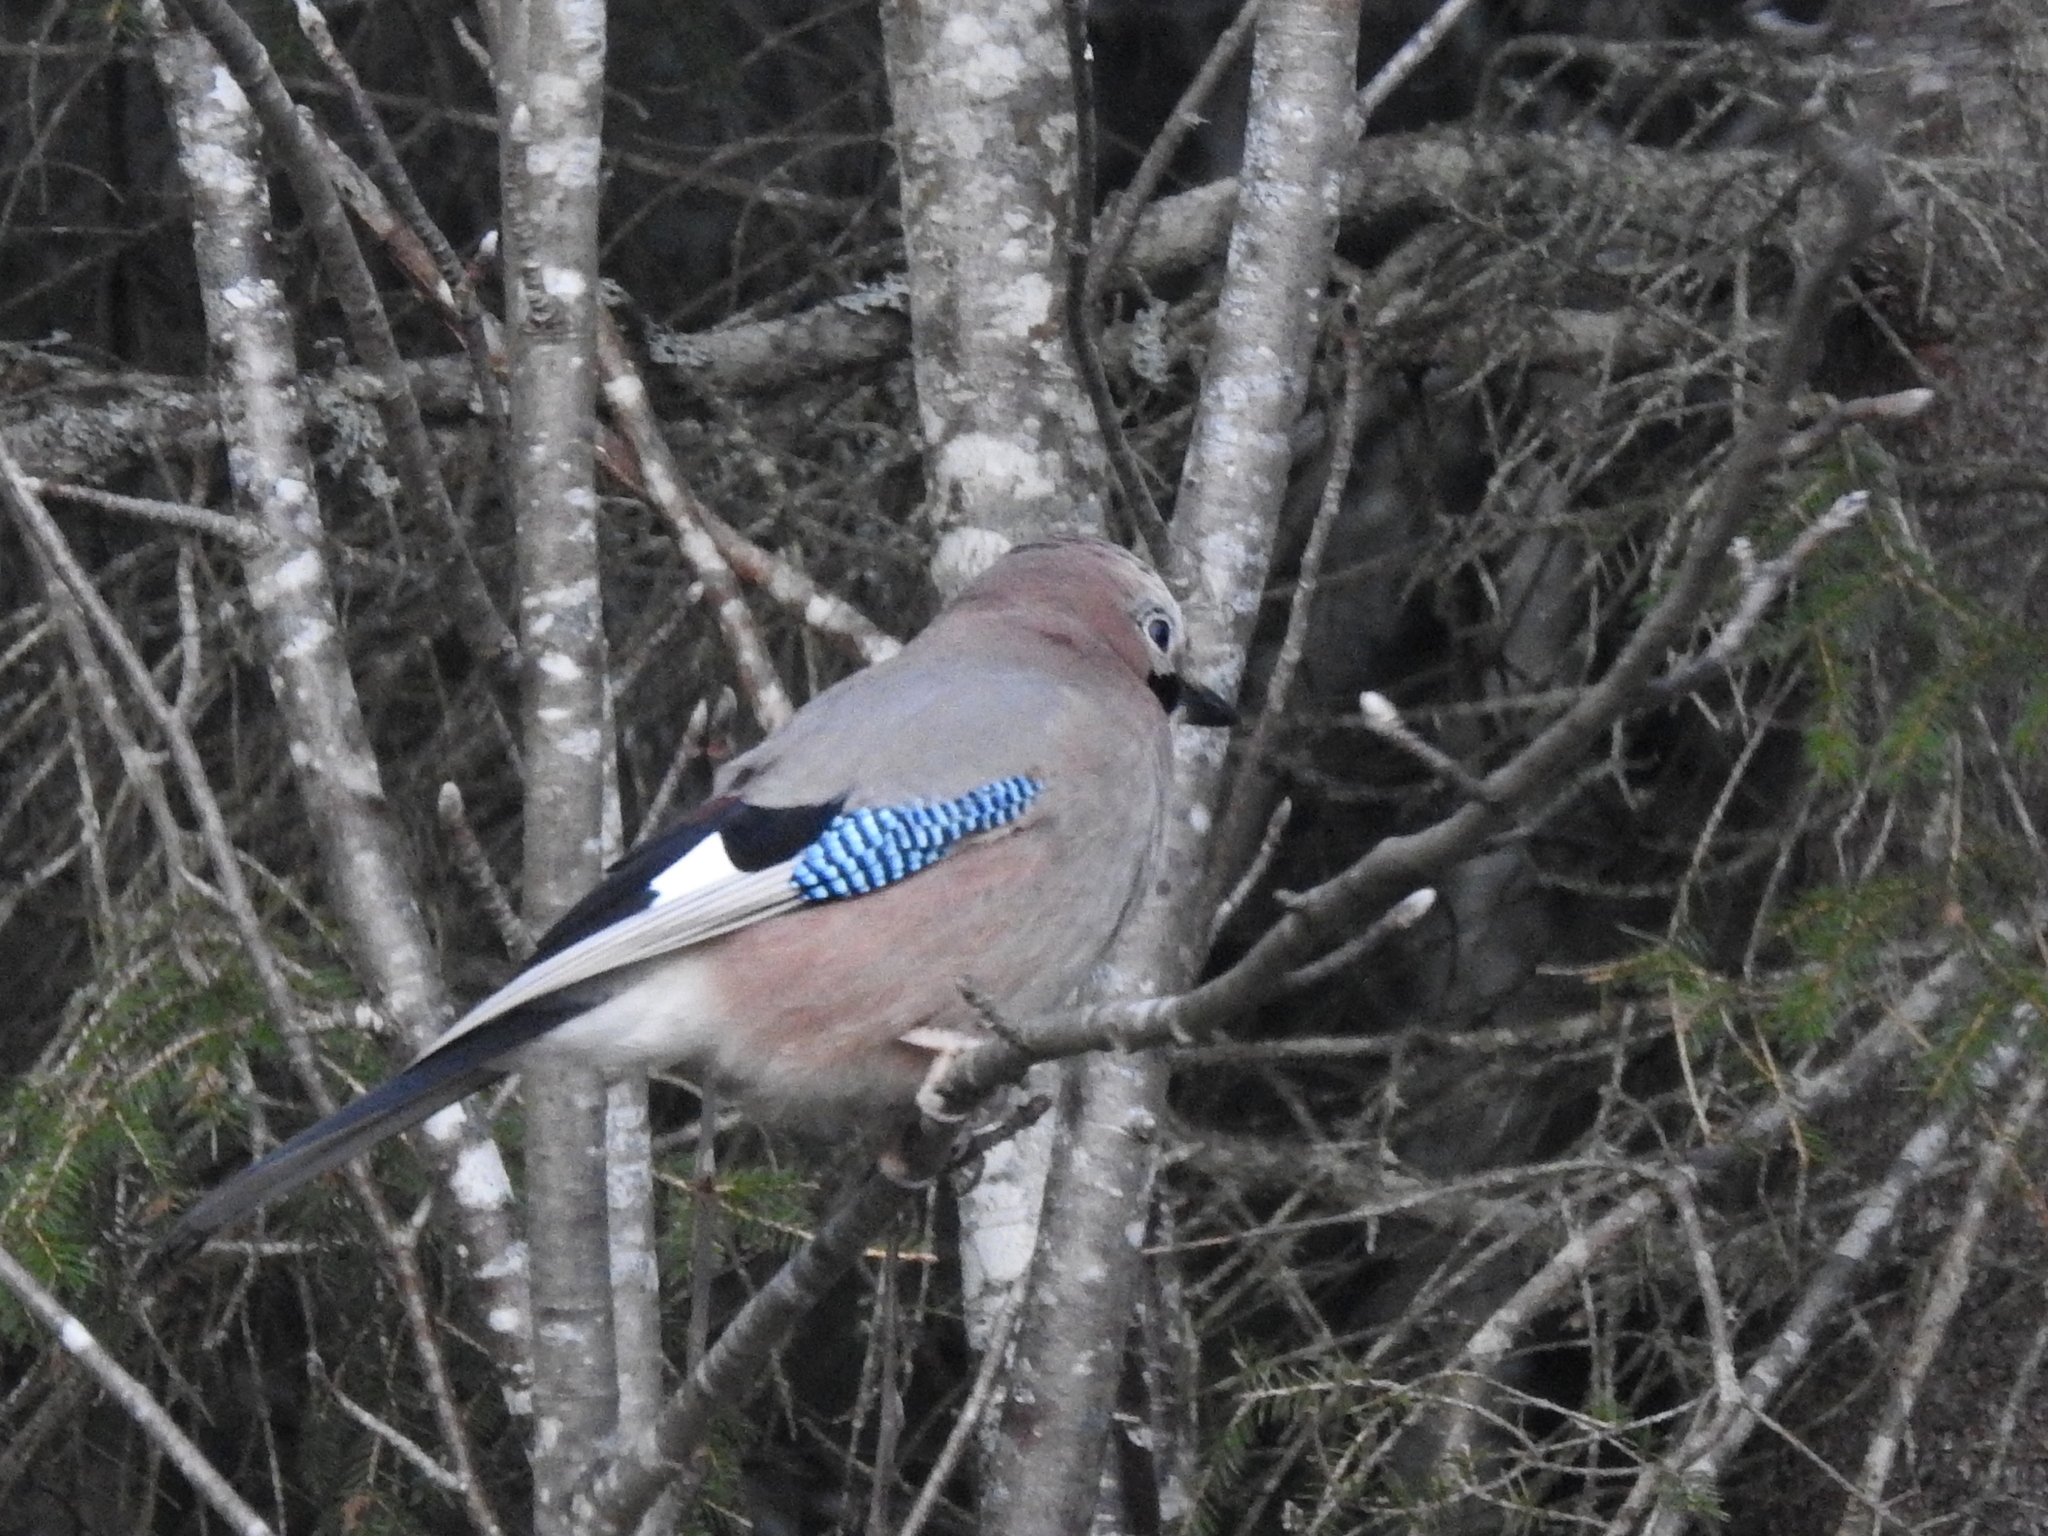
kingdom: Animalia
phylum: Chordata
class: Aves
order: Passeriformes
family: Corvidae
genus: Garrulus
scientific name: Garrulus glandarius
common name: Eurasian jay
